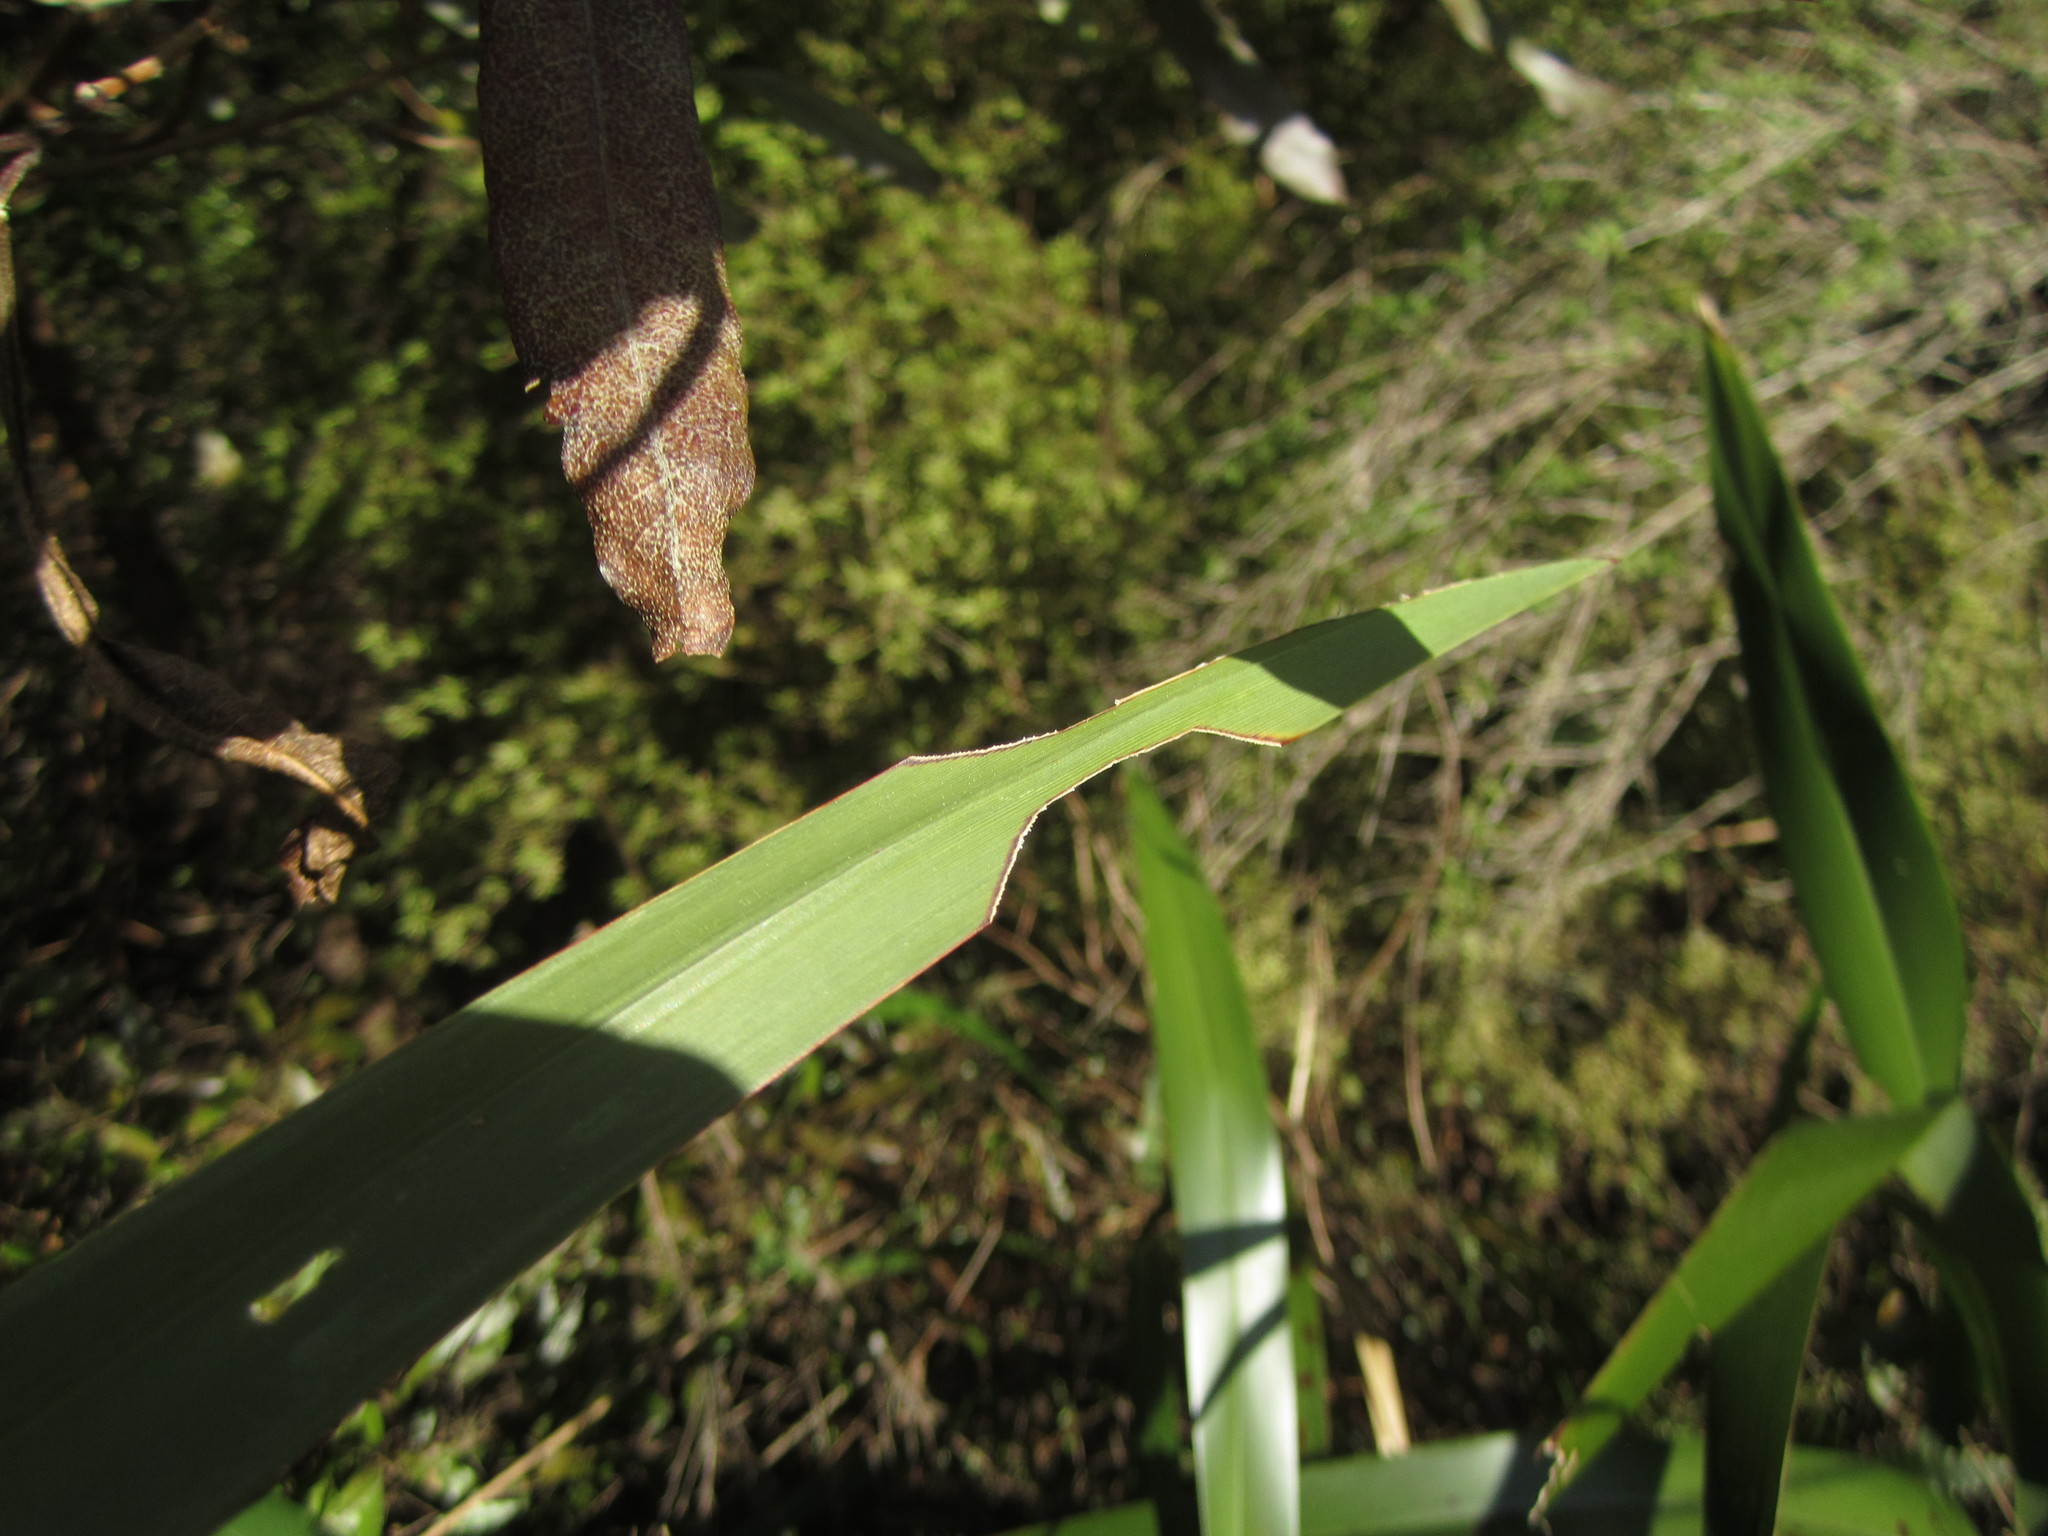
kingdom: Animalia
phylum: Arthropoda
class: Insecta
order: Lepidoptera
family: Noctuidae
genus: Ichneutica
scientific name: Ichneutica
